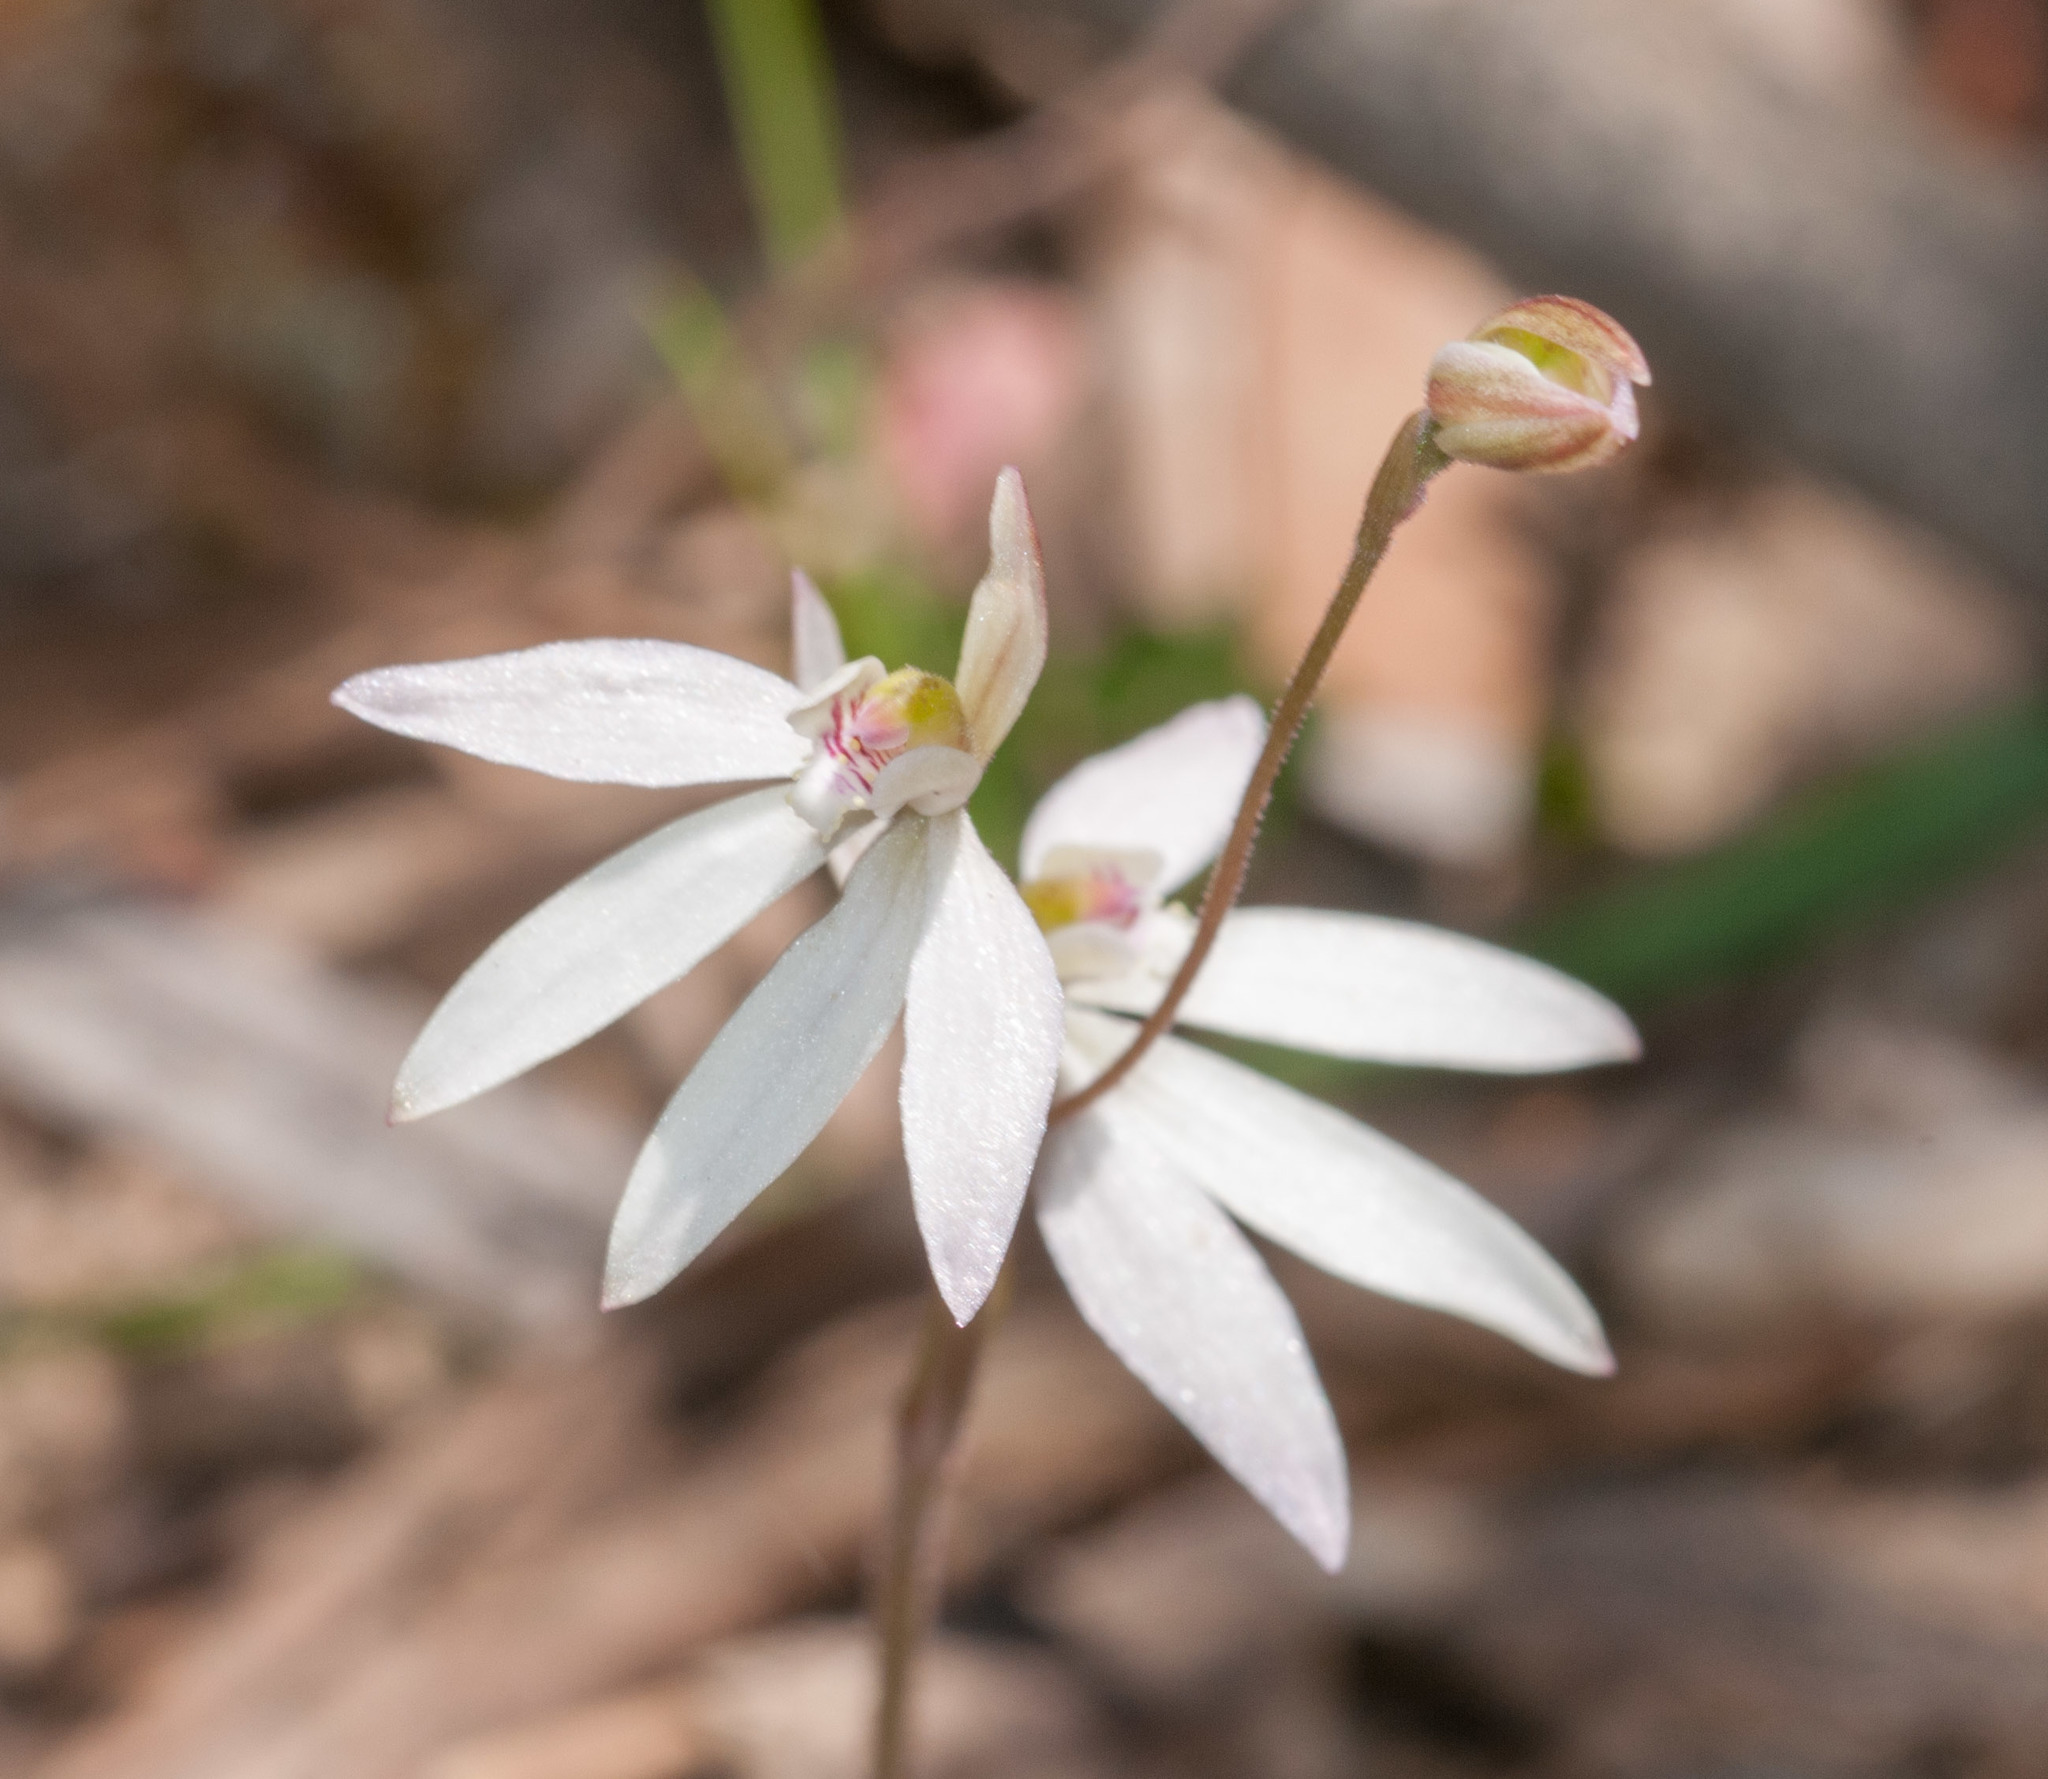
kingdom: Plantae
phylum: Tracheophyta
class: Liliopsida
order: Asparagales
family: Orchidaceae
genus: Caladenia
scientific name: Caladenia carnea
